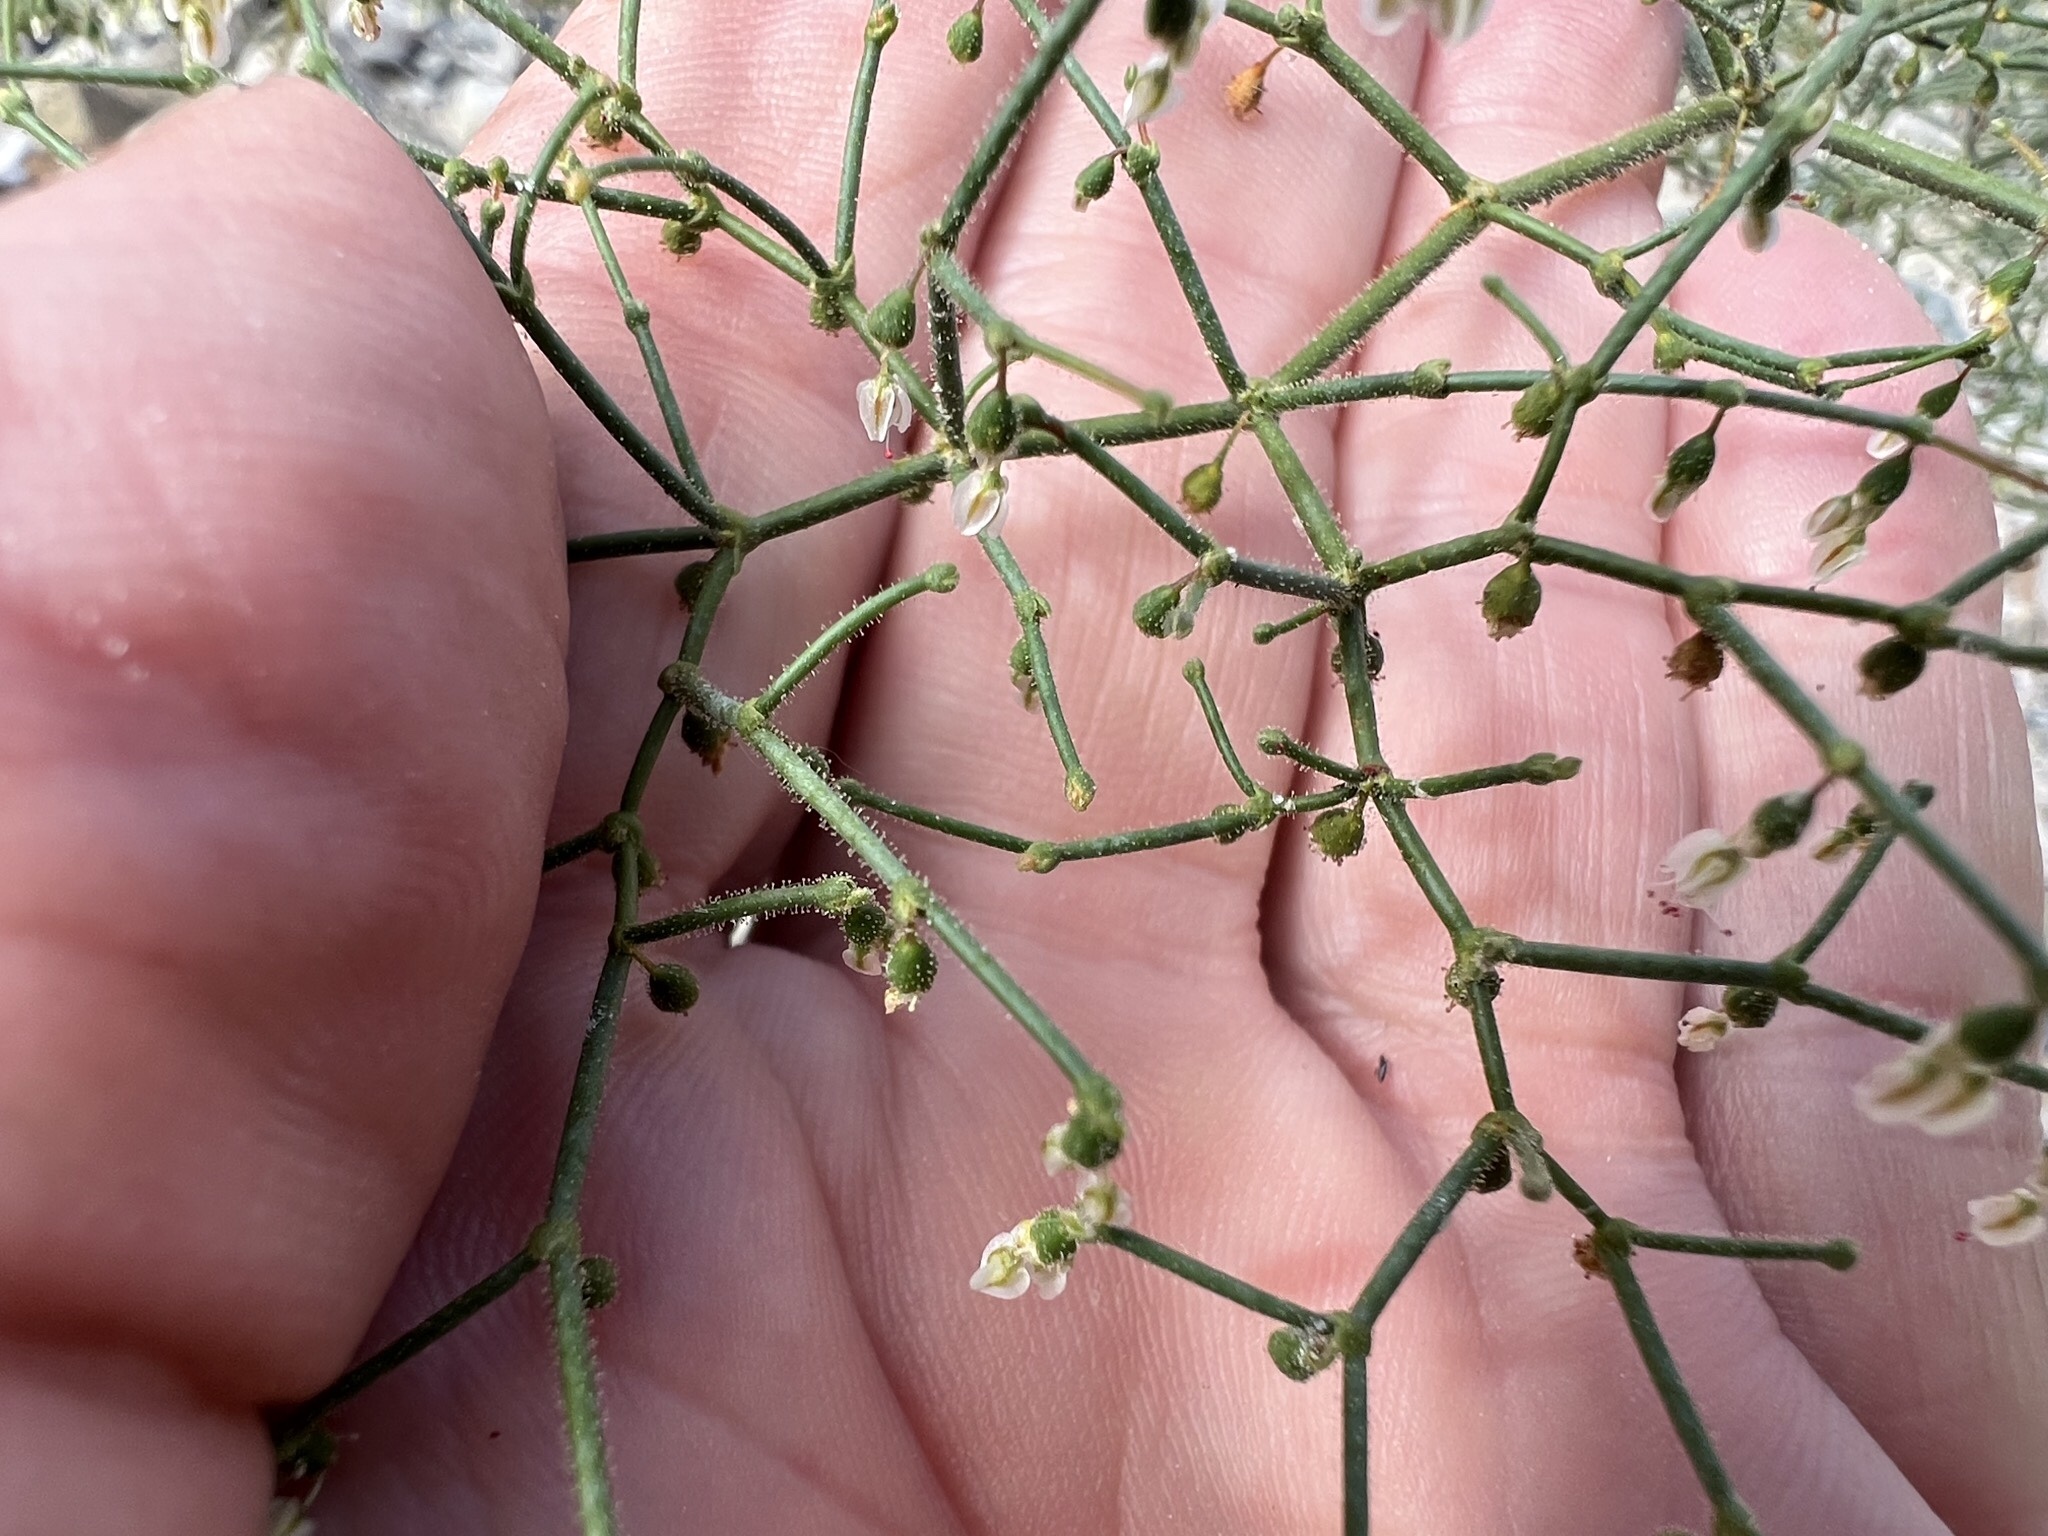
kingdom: Plantae
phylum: Tracheophyta
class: Magnoliopsida
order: Caryophyllales
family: Polygonaceae
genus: Eriogonum
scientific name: Eriogonum brachypodum
